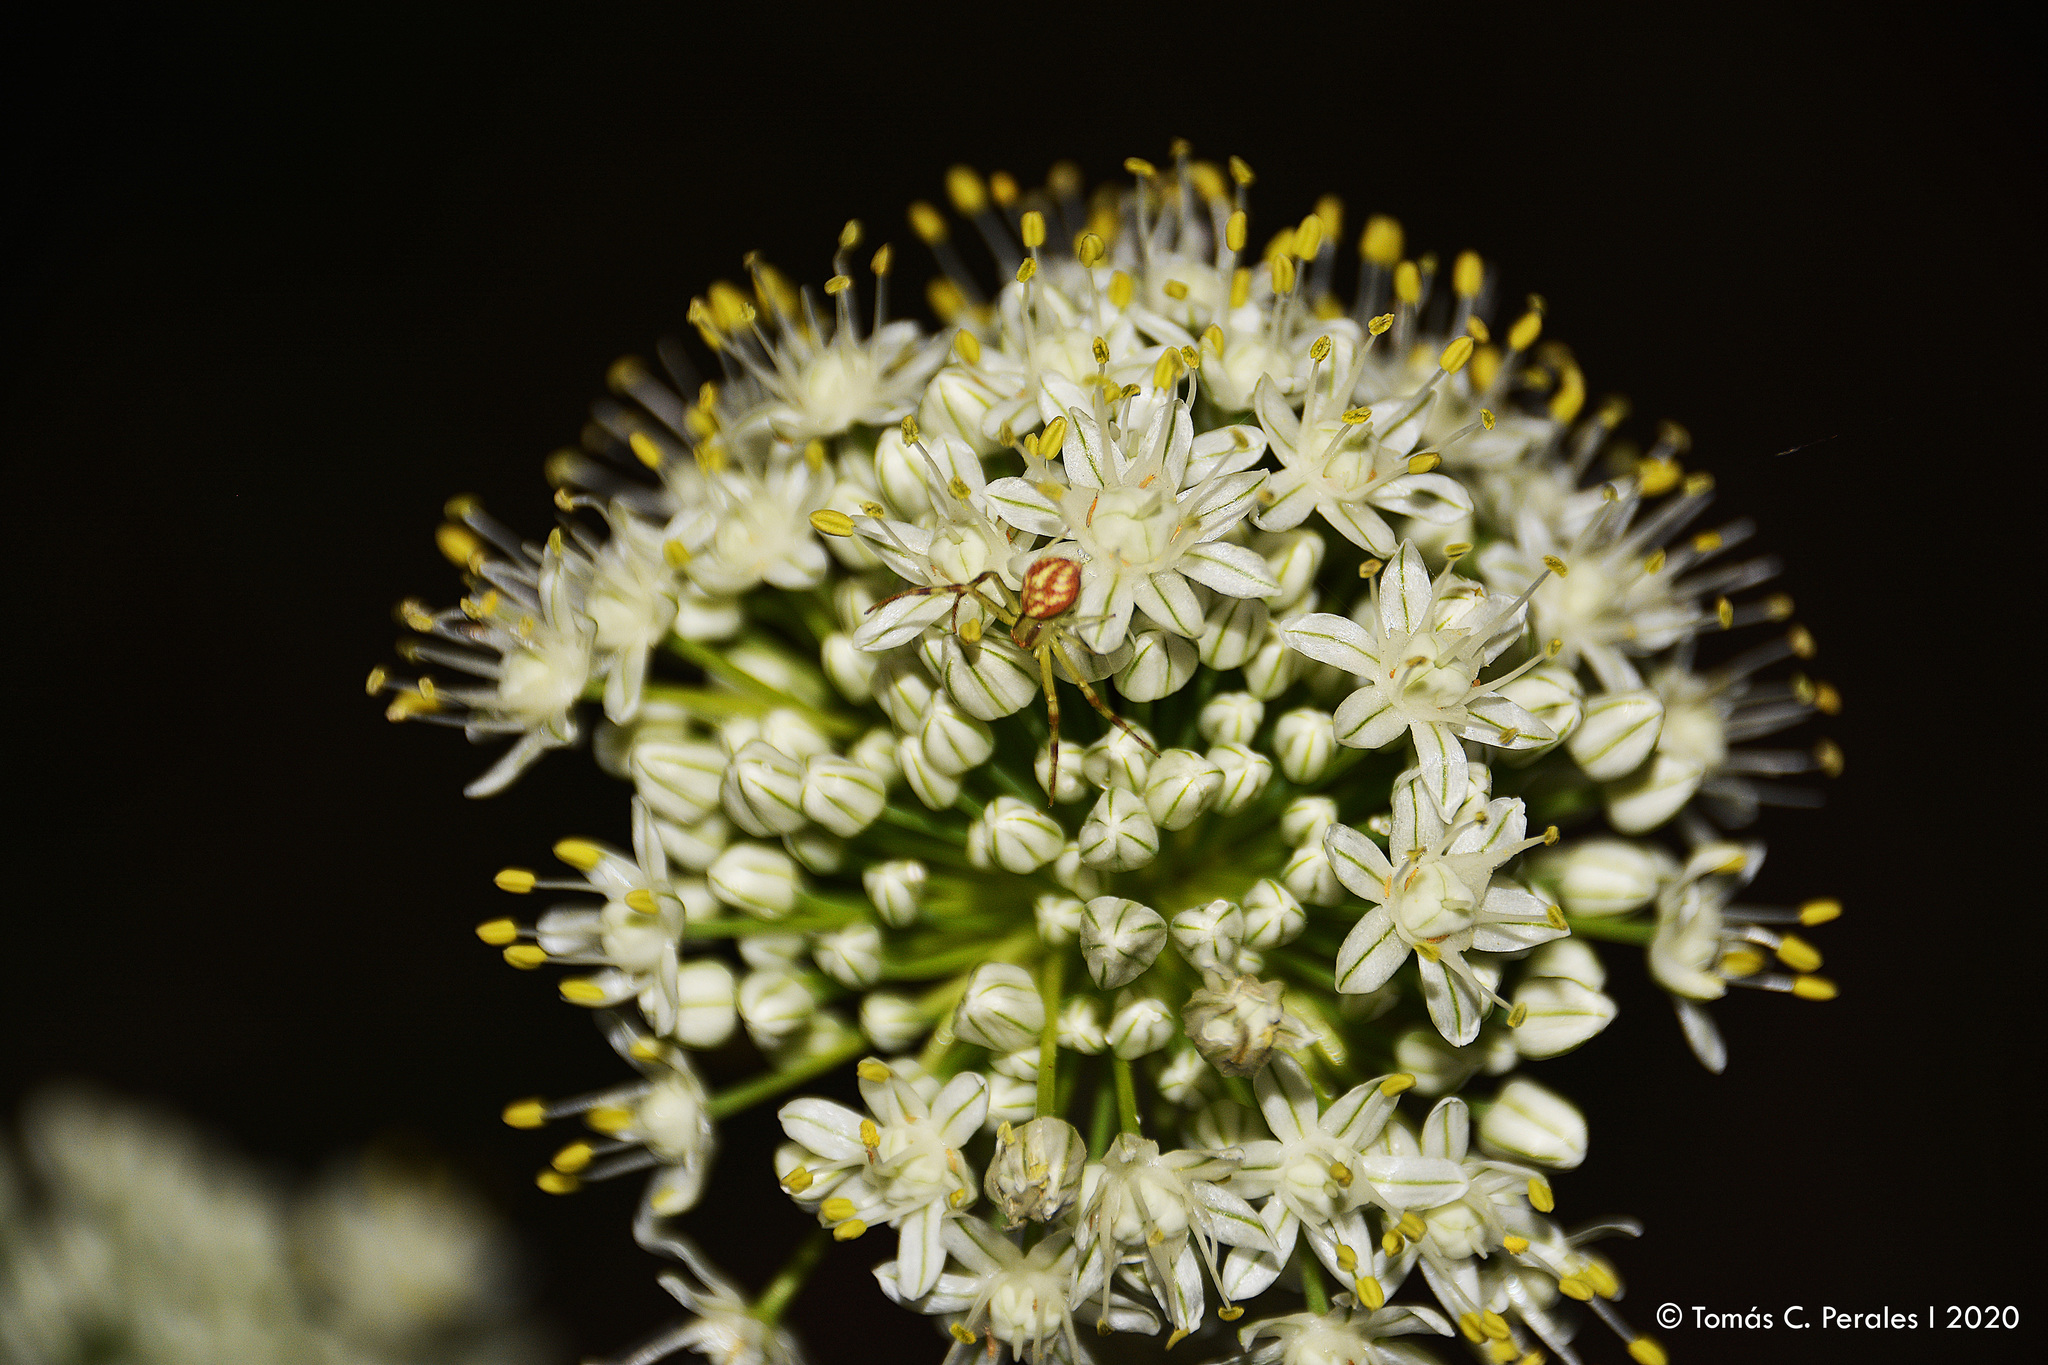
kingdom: Animalia
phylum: Arthropoda
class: Arachnida
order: Araneae
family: Thomisidae
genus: Misumenops
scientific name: Misumenops
